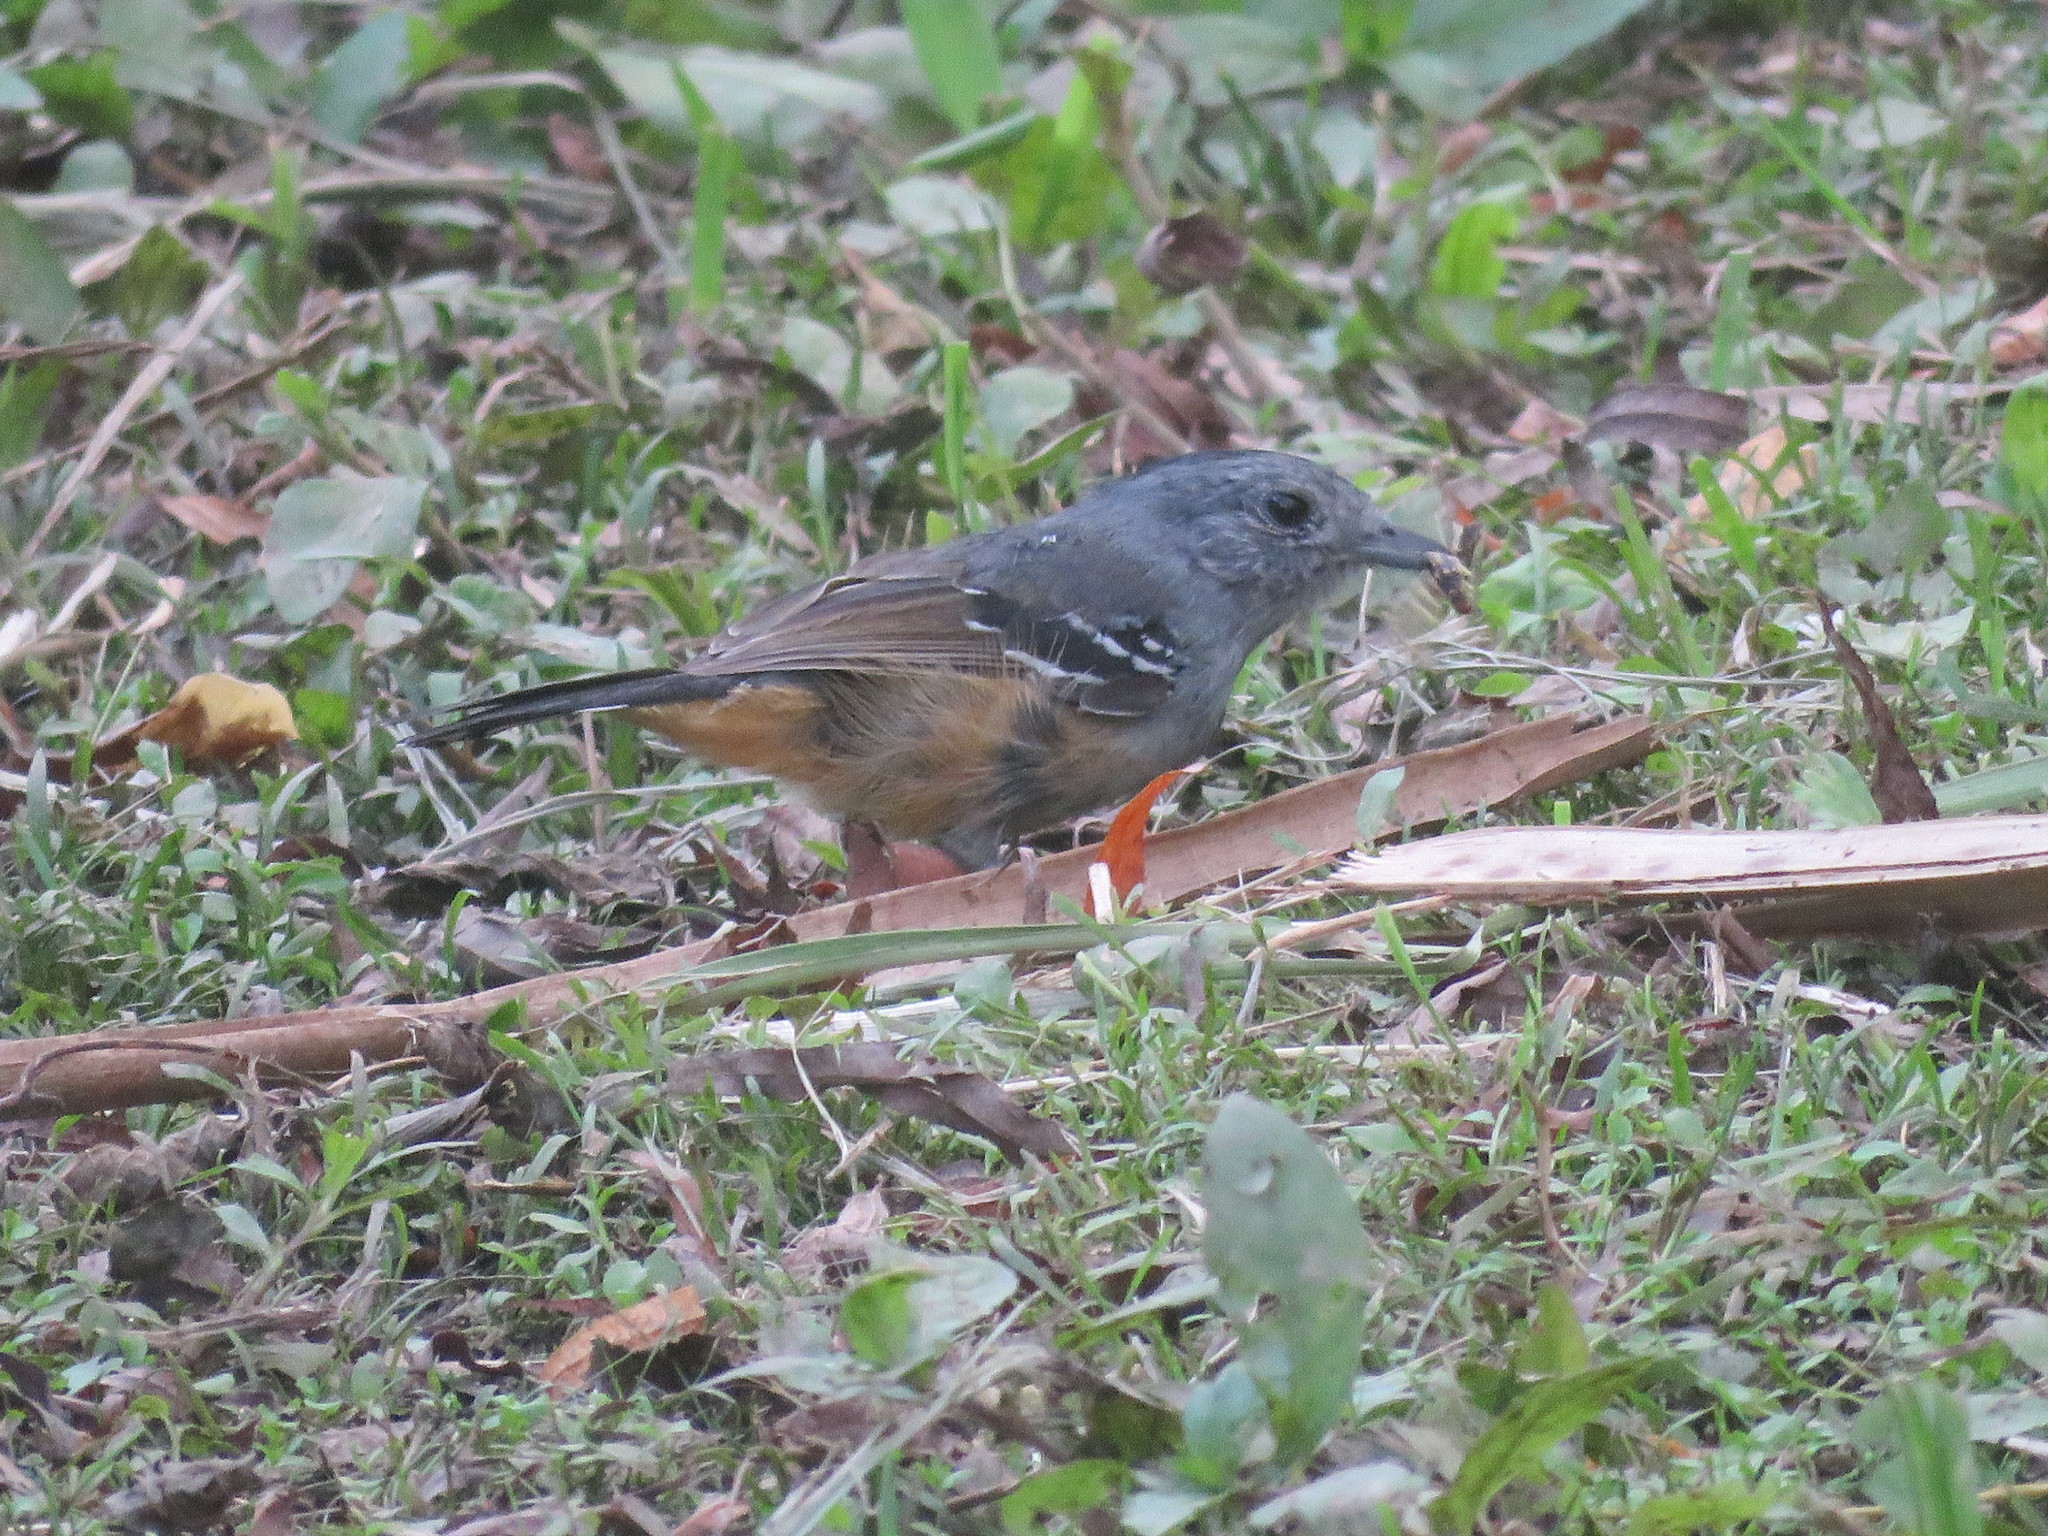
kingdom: Animalia
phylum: Chordata
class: Aves
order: Passeriformes
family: Thamnophilidae
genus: Thamnophilus
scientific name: Thamnophilus caerulescens
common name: Variable antshrike
